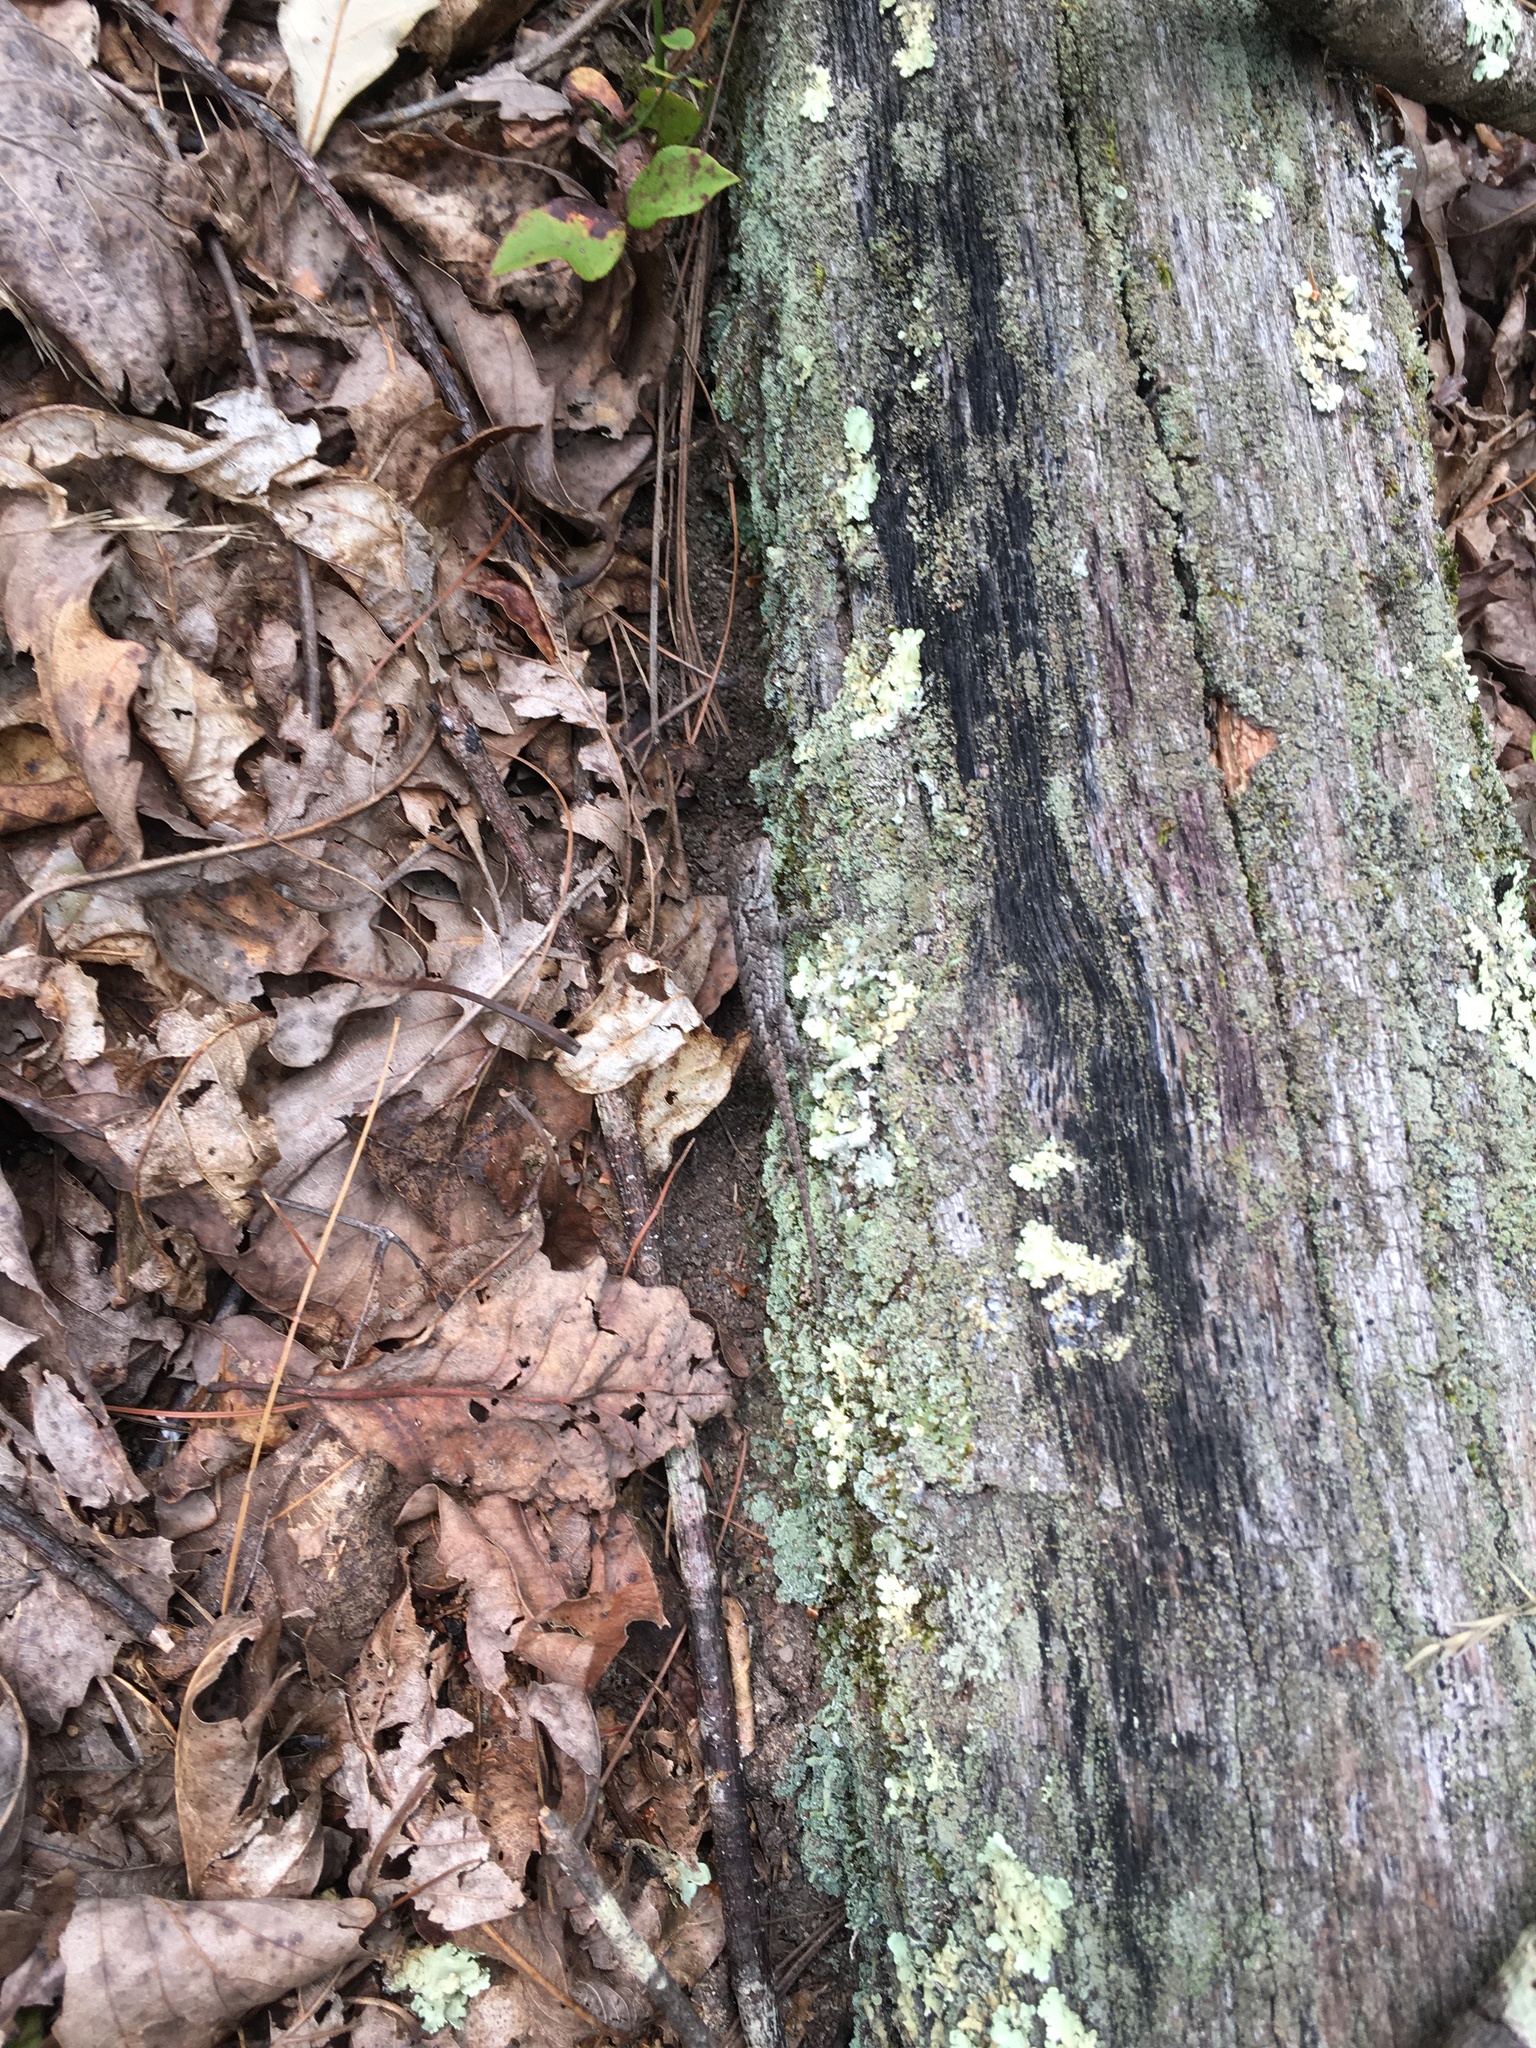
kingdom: Animalia
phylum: Chordata
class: Squamata
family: Phrynosomatidae
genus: Sceloporus
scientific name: Sceloporus undulatus
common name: Eastern fence lizard
